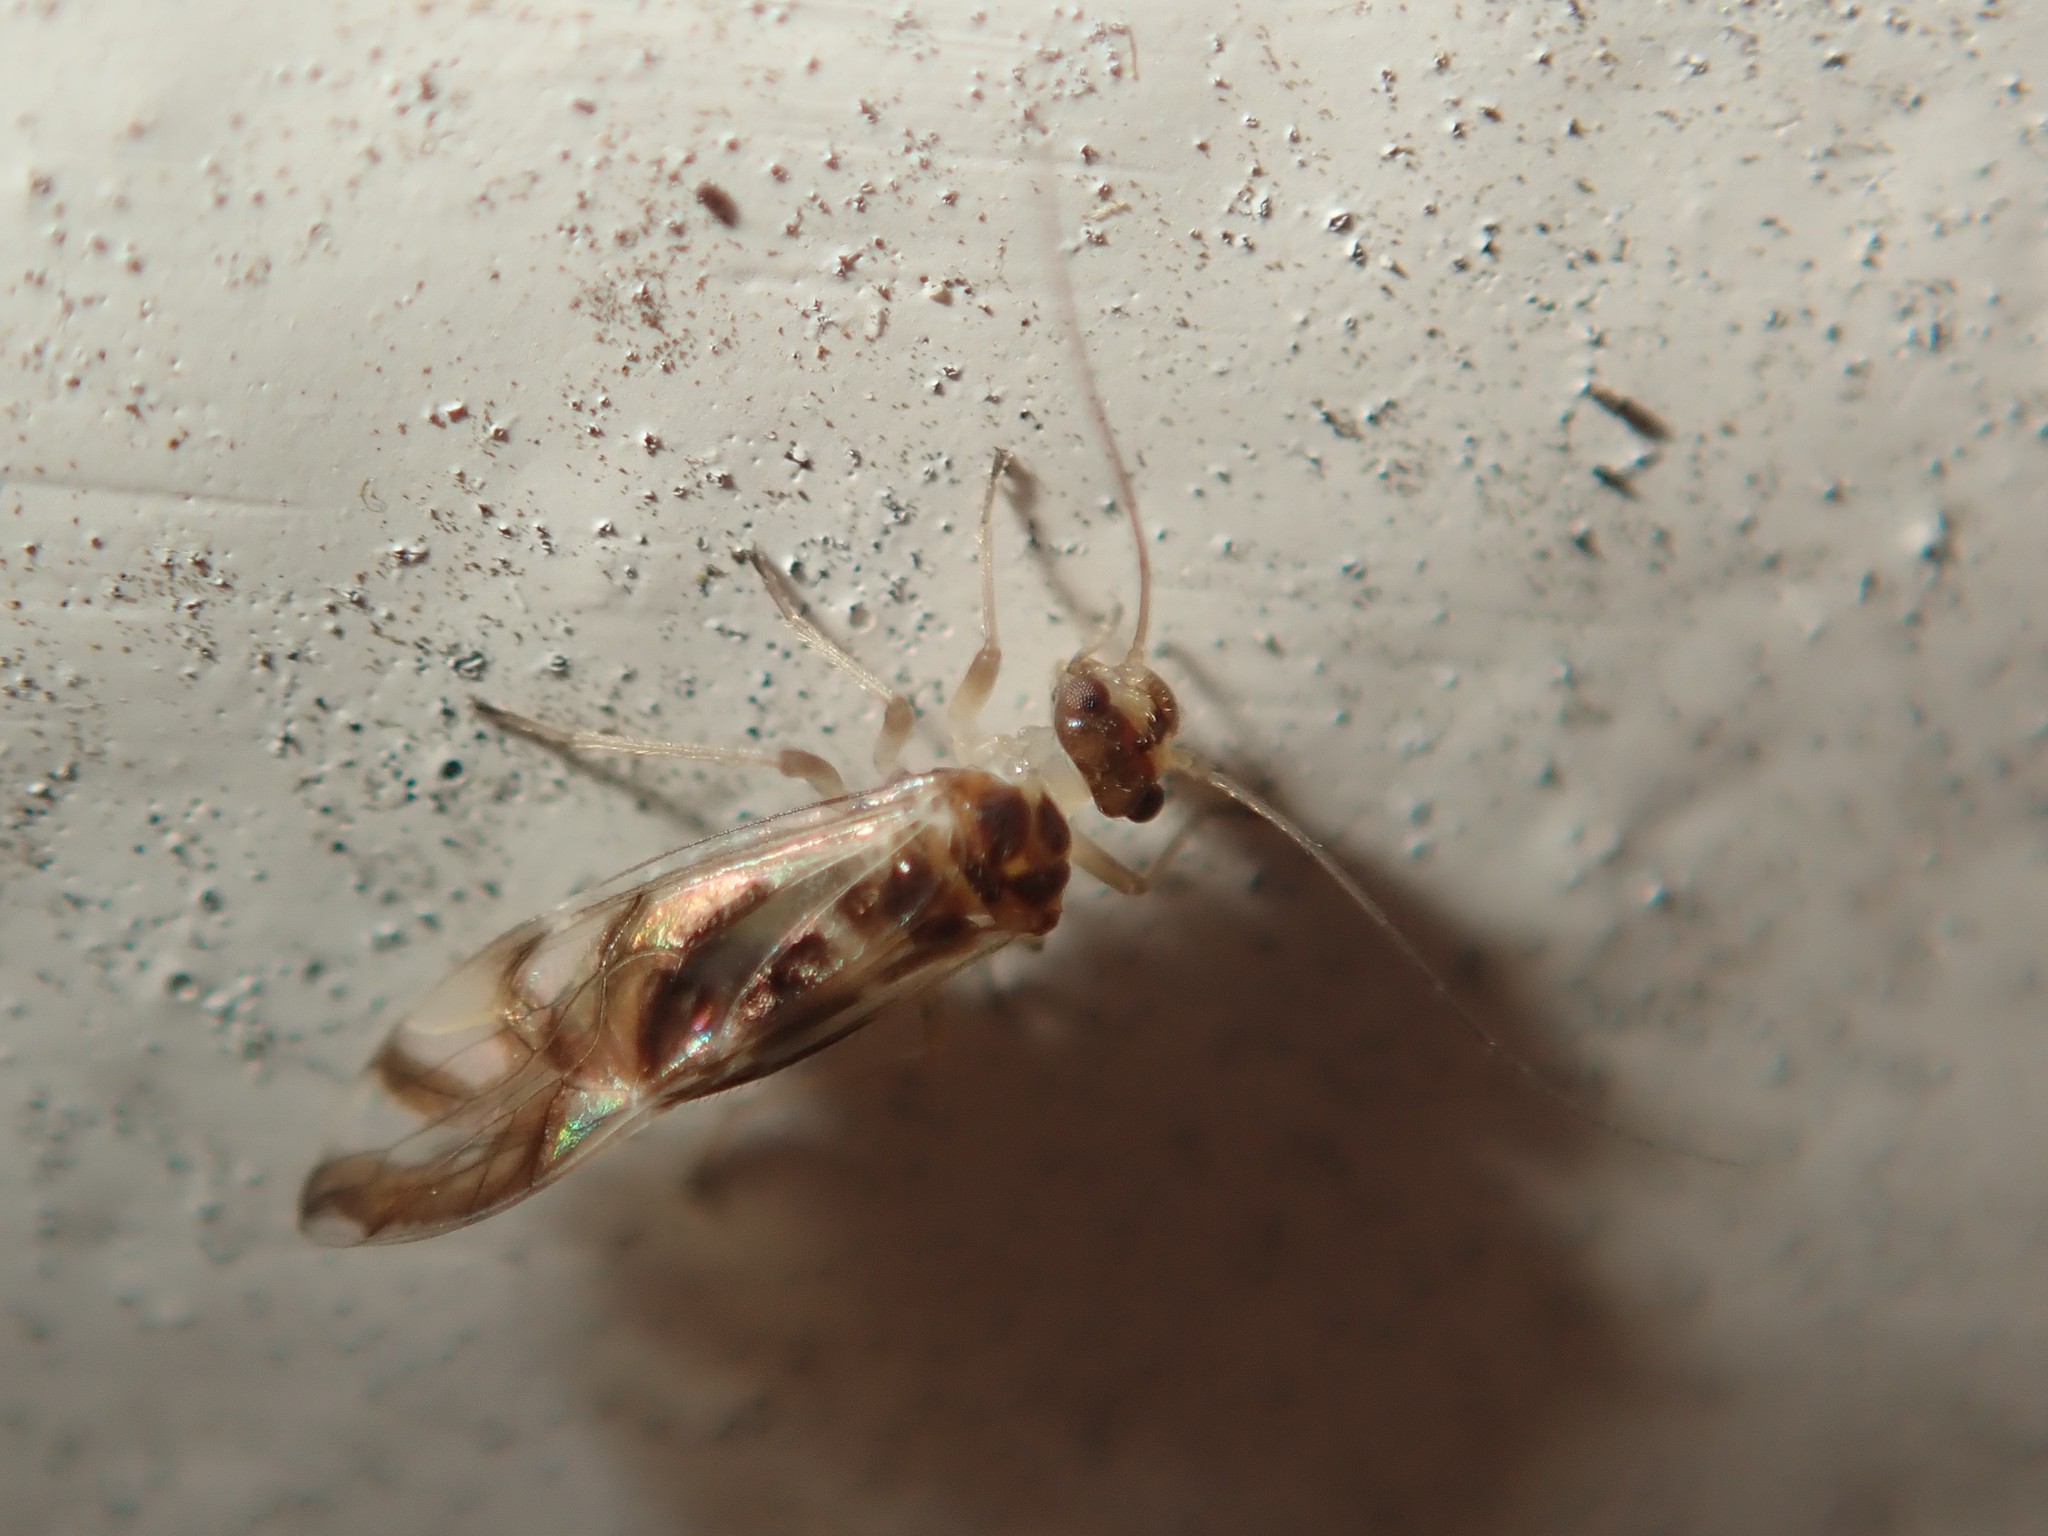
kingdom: Animalia
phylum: Arthropoda
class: Insecta
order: Psocodea
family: Stenopsocidae
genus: Graphopsocus
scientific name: Graphopsocus cruciatus
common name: Lizard bark louse
